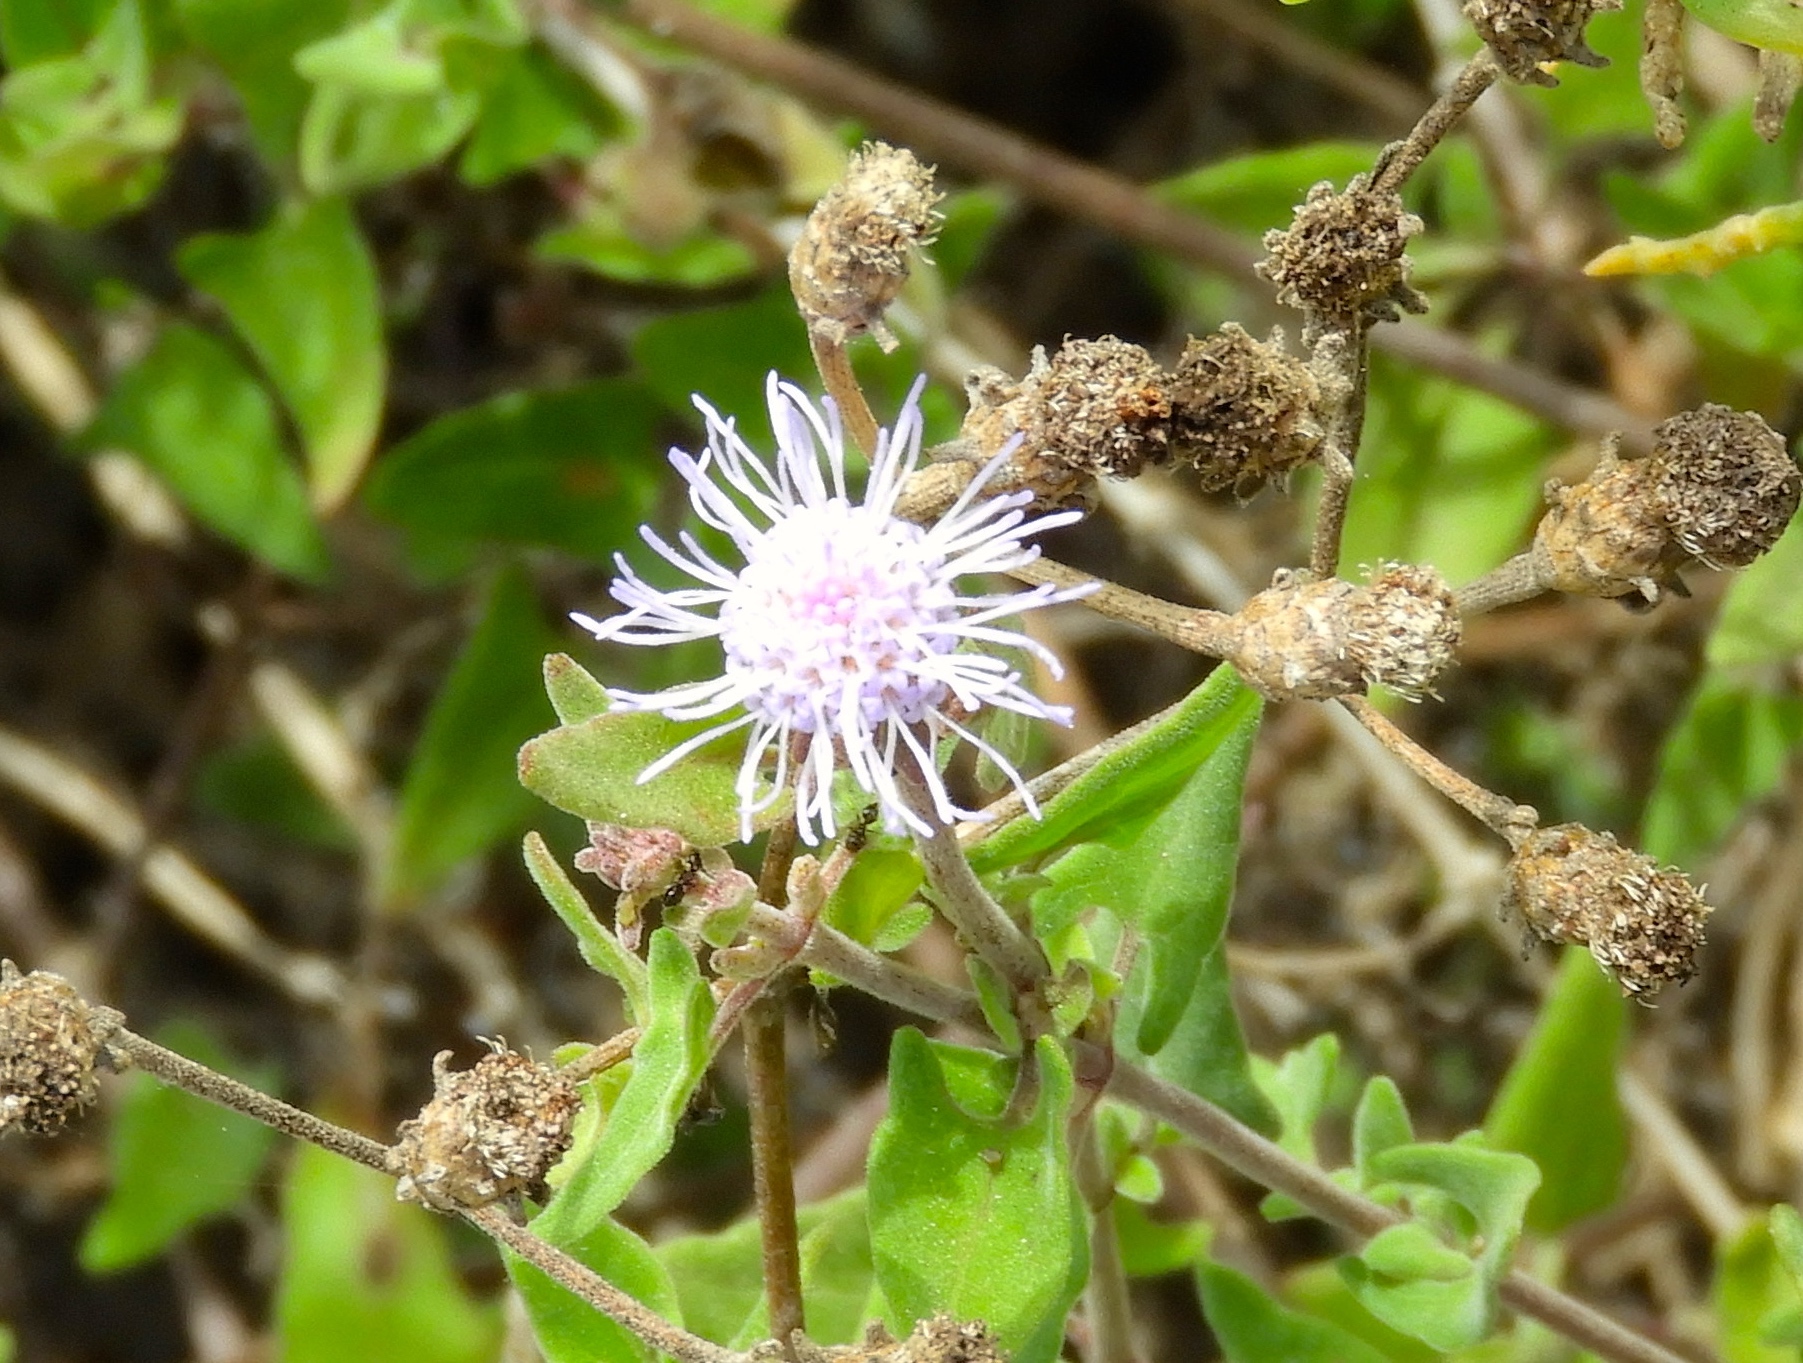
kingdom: Plantae
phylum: Tracheophyta
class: Magnoliopsida
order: Asterales
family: Asteraceae
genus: Chromolaena
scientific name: Chromolaena sagittata
